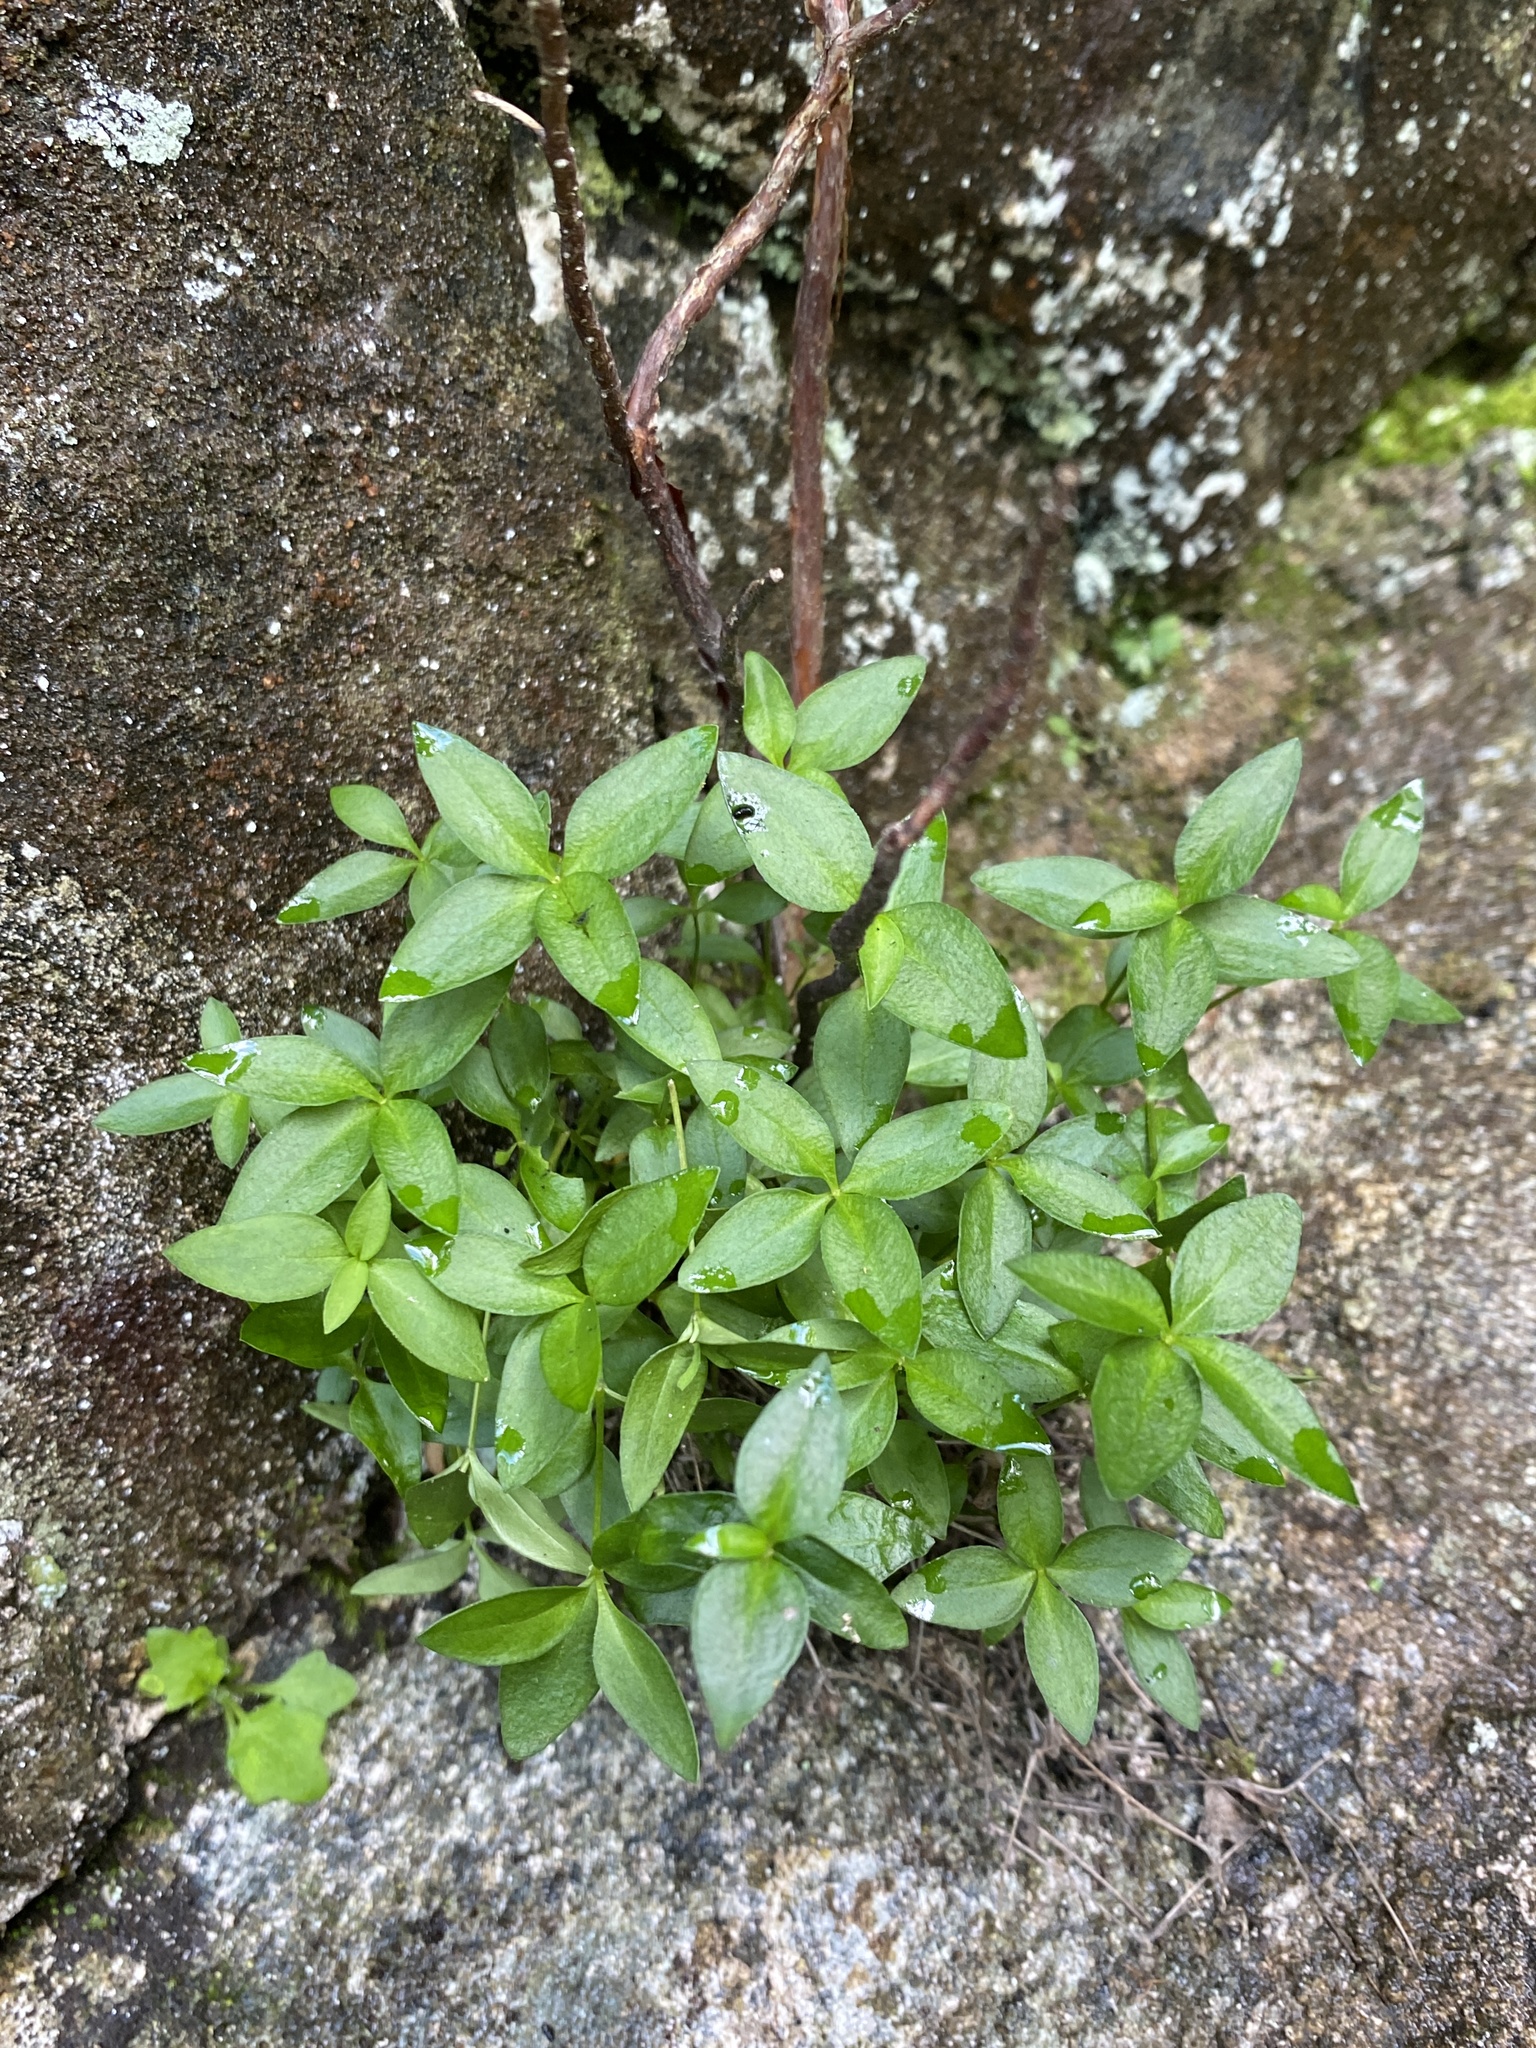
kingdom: Plantae
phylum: Tracheophyta
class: Magnoliopsida
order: Gentianales
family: Rubiaceae
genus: Houstonia
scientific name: Houstonia purpurea
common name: Summer bluet
